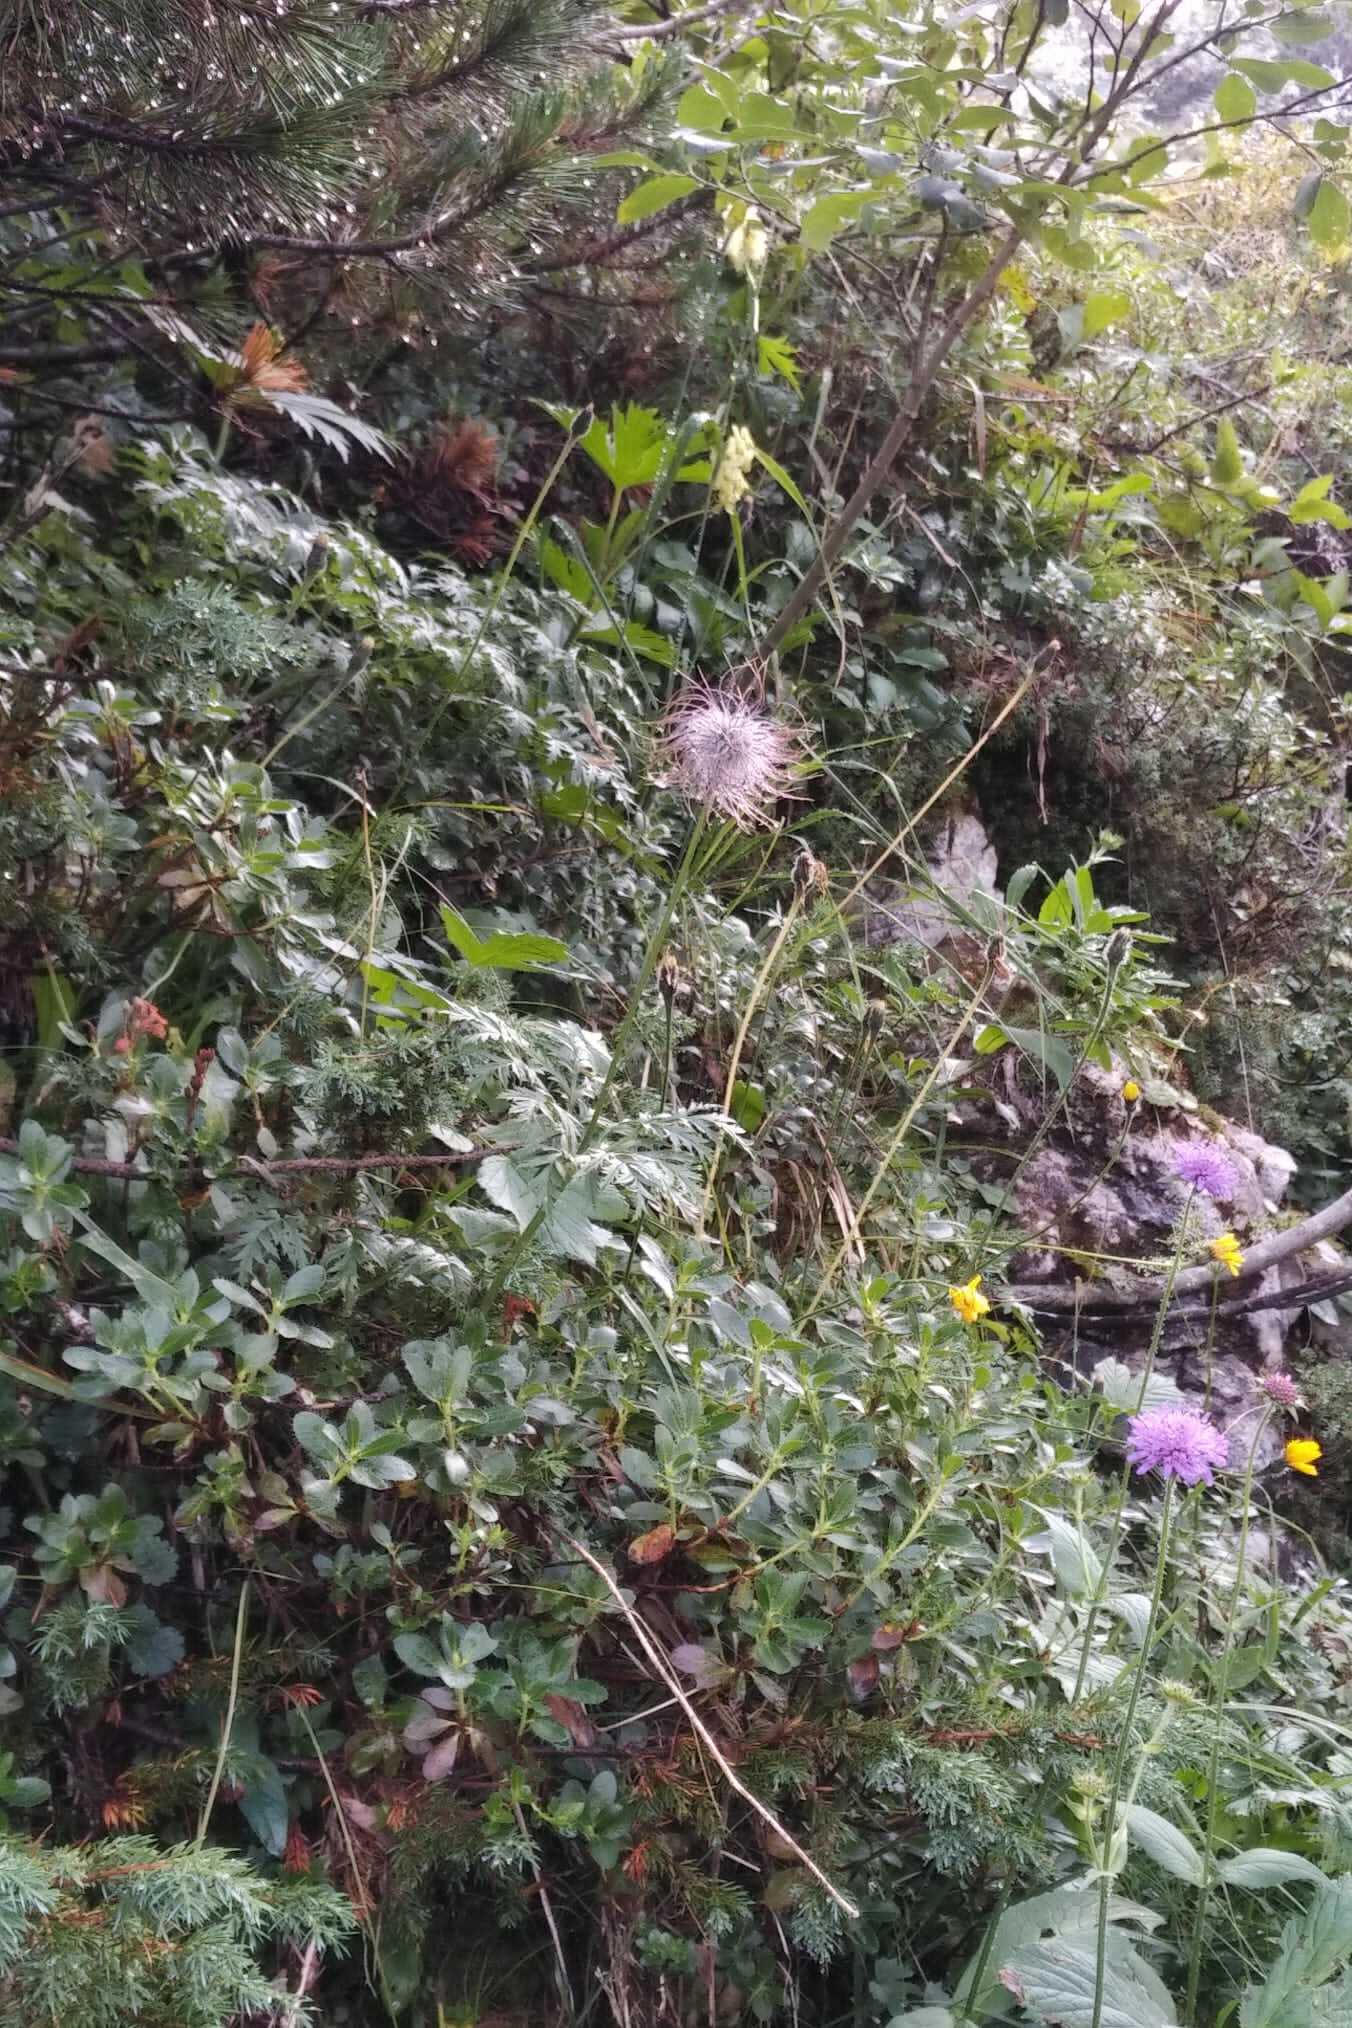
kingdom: Plantae
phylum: Tracheophyta
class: Magnoliopsida
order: Ranunculales
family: Ranunculaceae
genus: Pulsatilla
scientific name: Pulsatilla alpina
